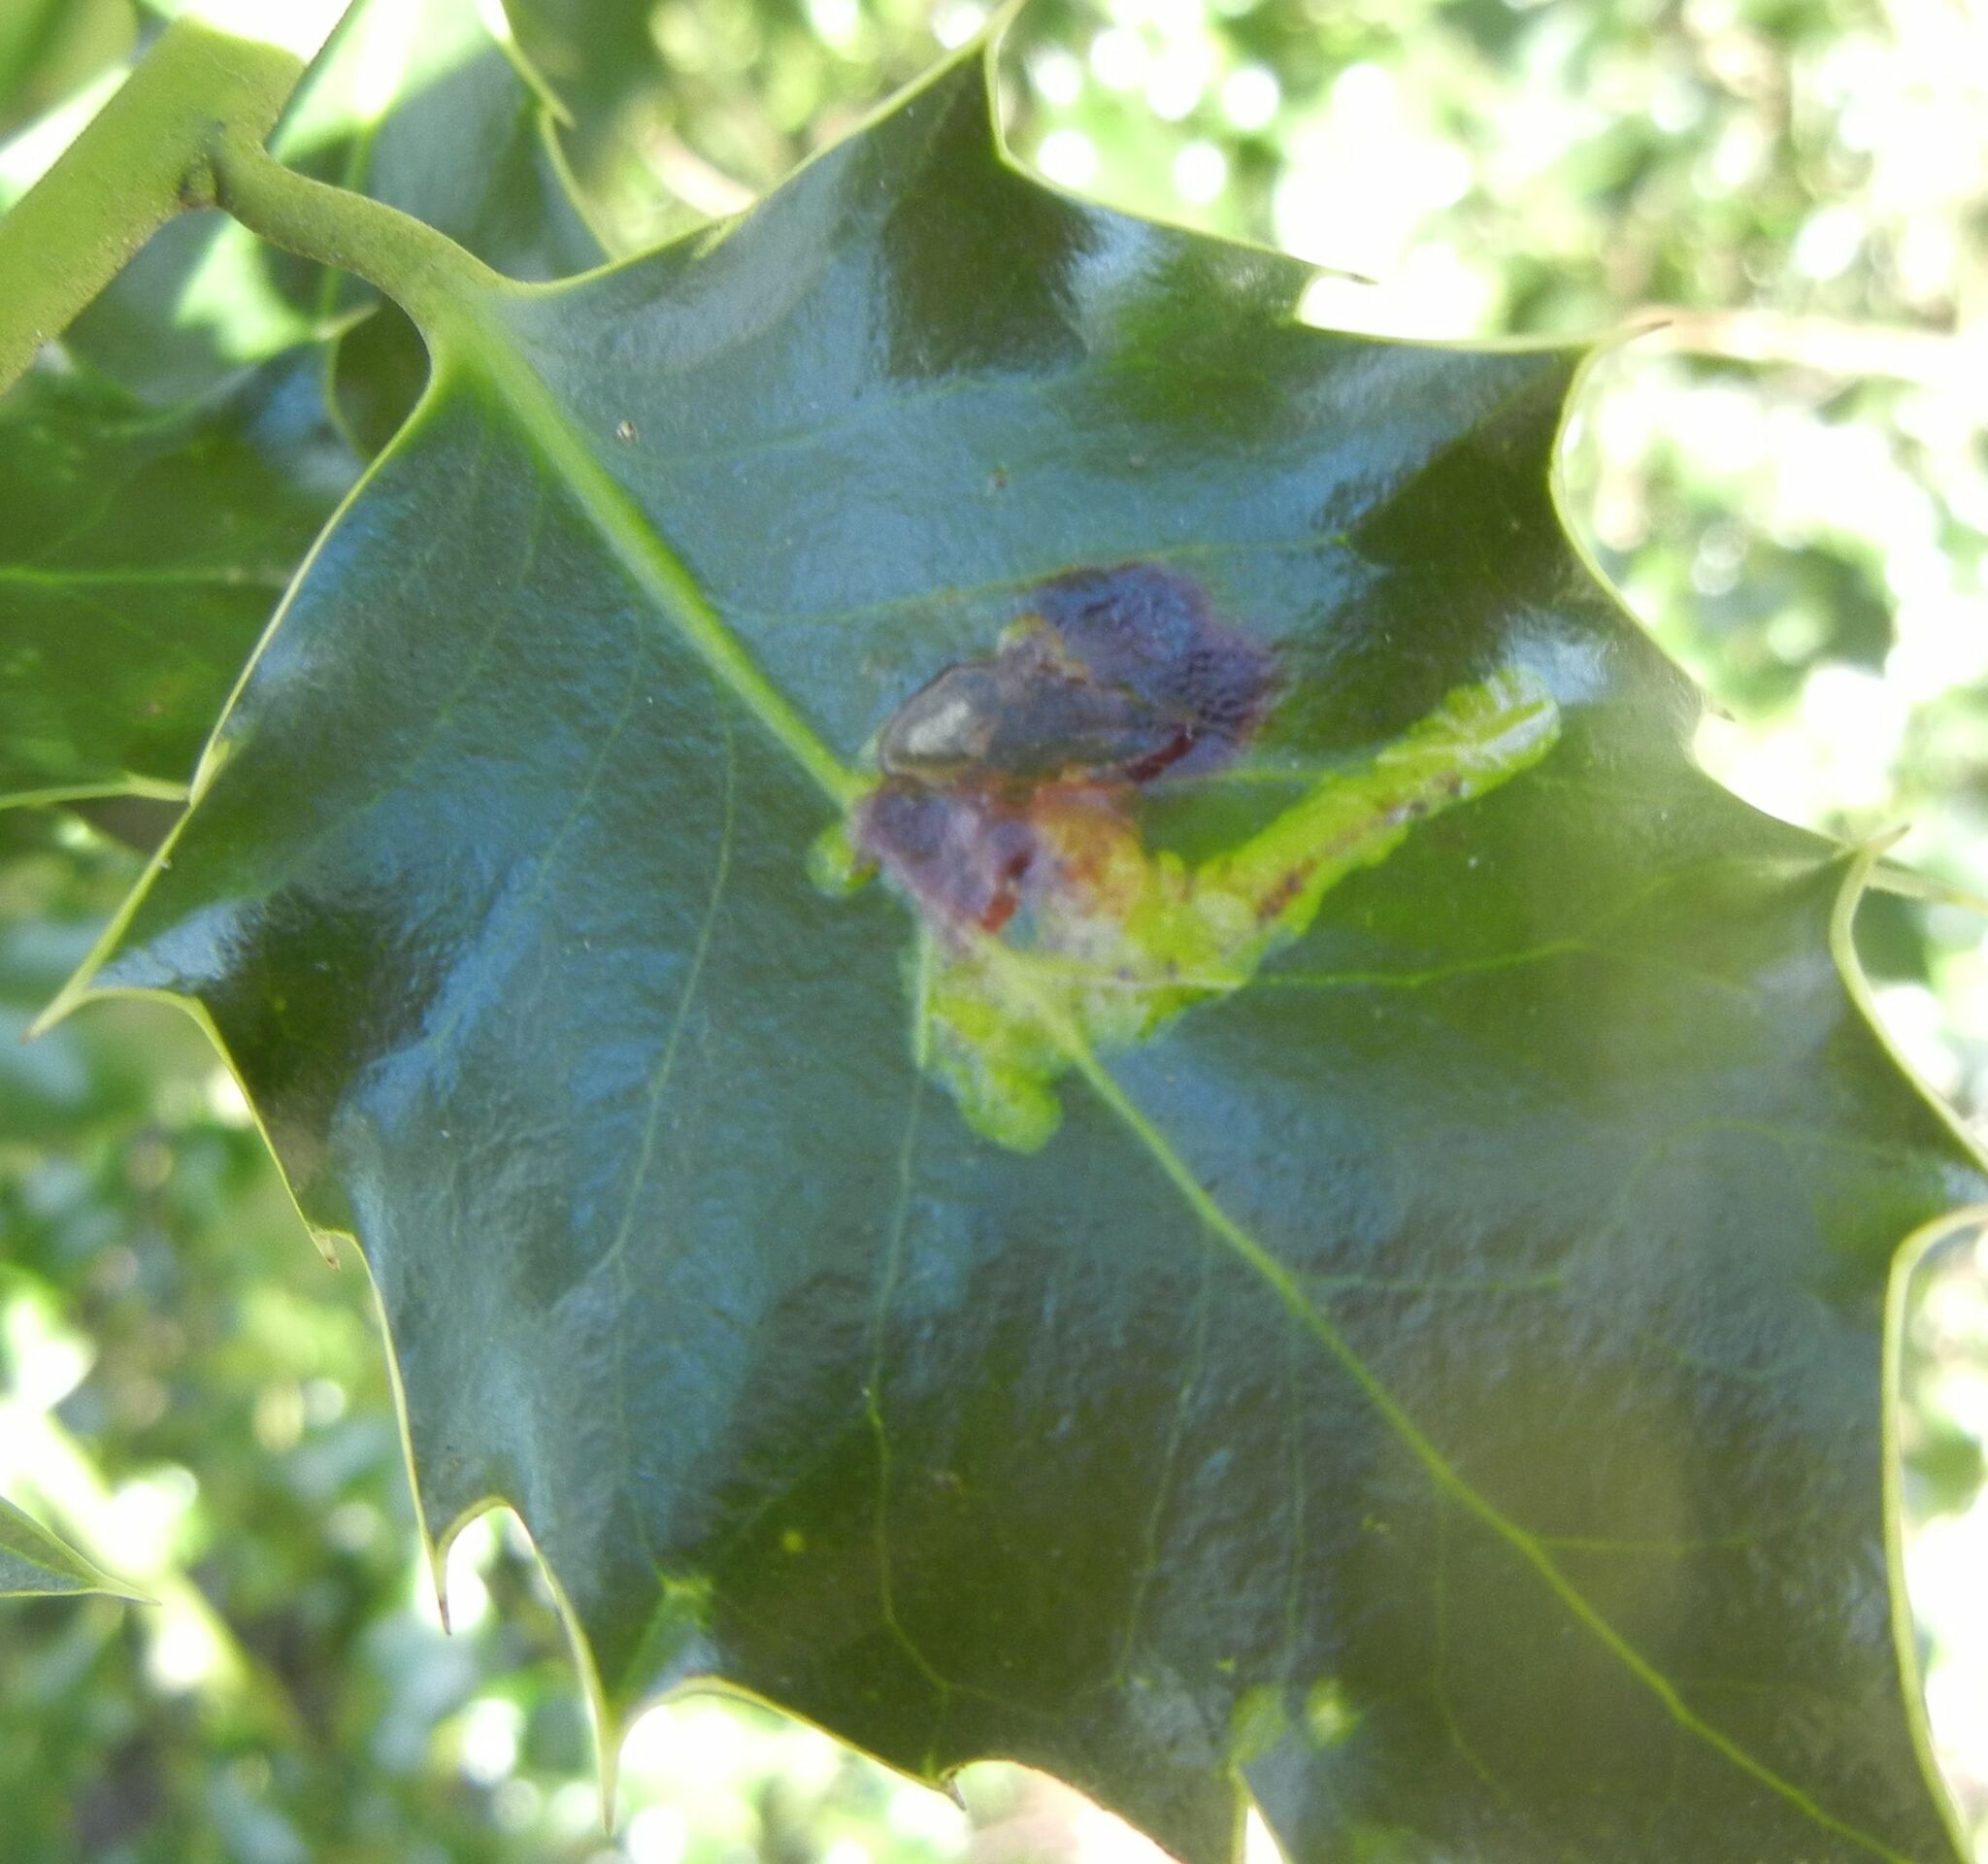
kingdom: Animalia
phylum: Arthropoda
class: Insecta
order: Diptera
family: Agromyzidae
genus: Phytomyza
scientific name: Phytomyza ilicis
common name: Holly leafminer
